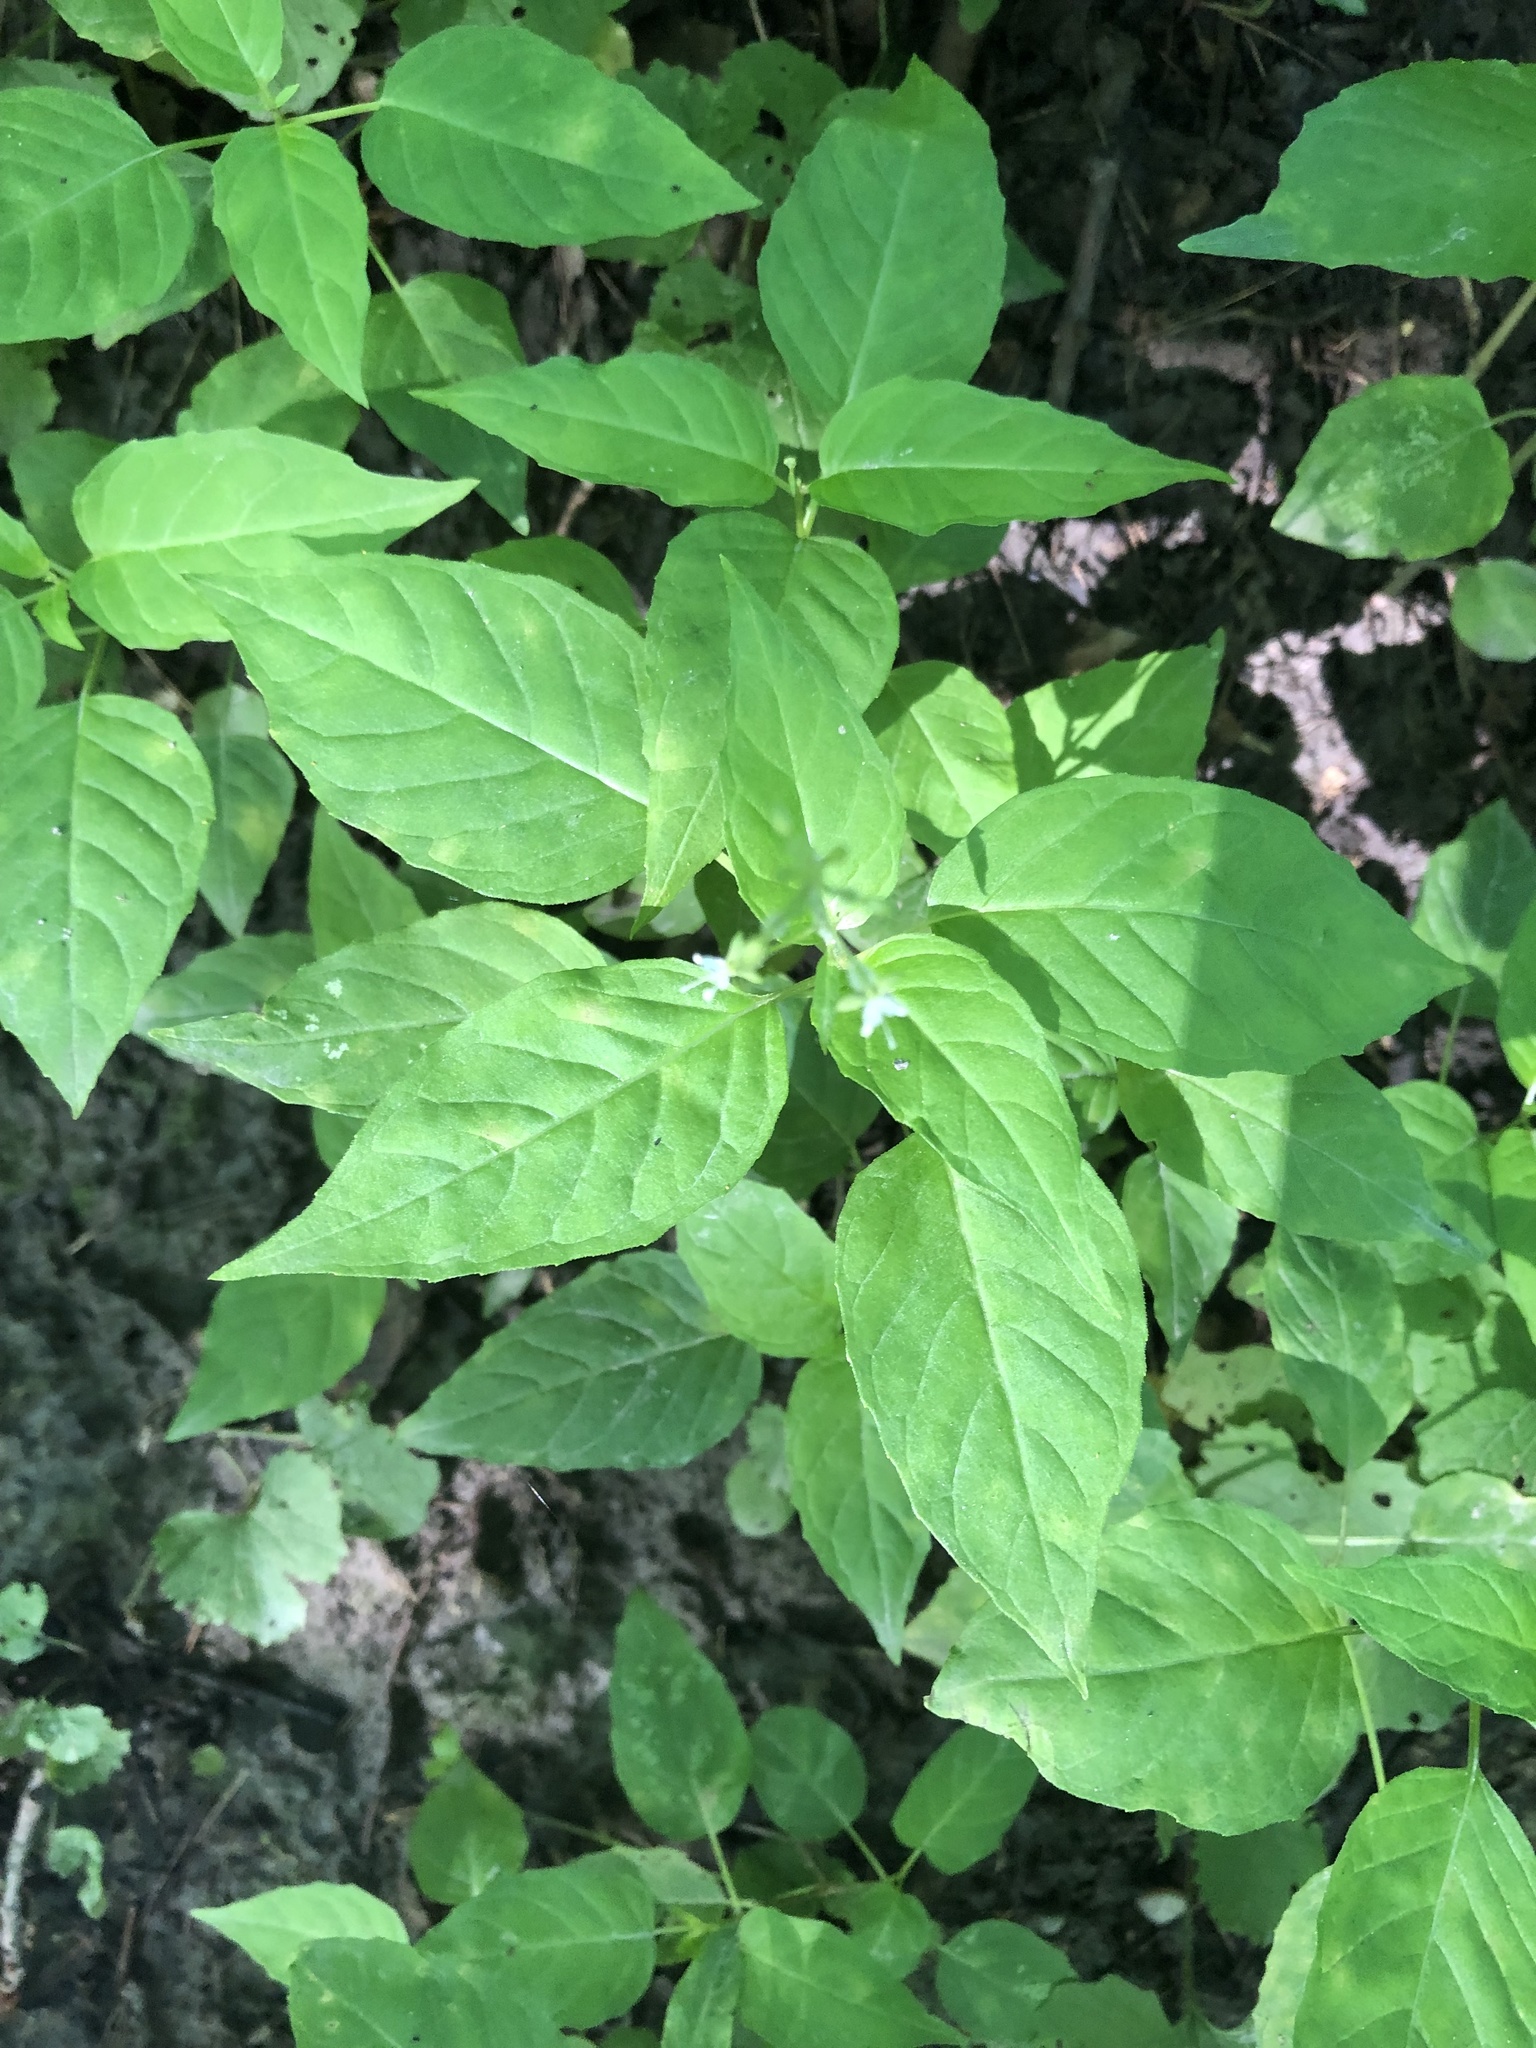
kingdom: Plantae
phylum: Tracheophyta
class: Magnoliopsida
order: Myrtales
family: Onagraceae
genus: Circaea
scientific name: Circaea canadensis
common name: Broad-leaved enchanter's nightshade
